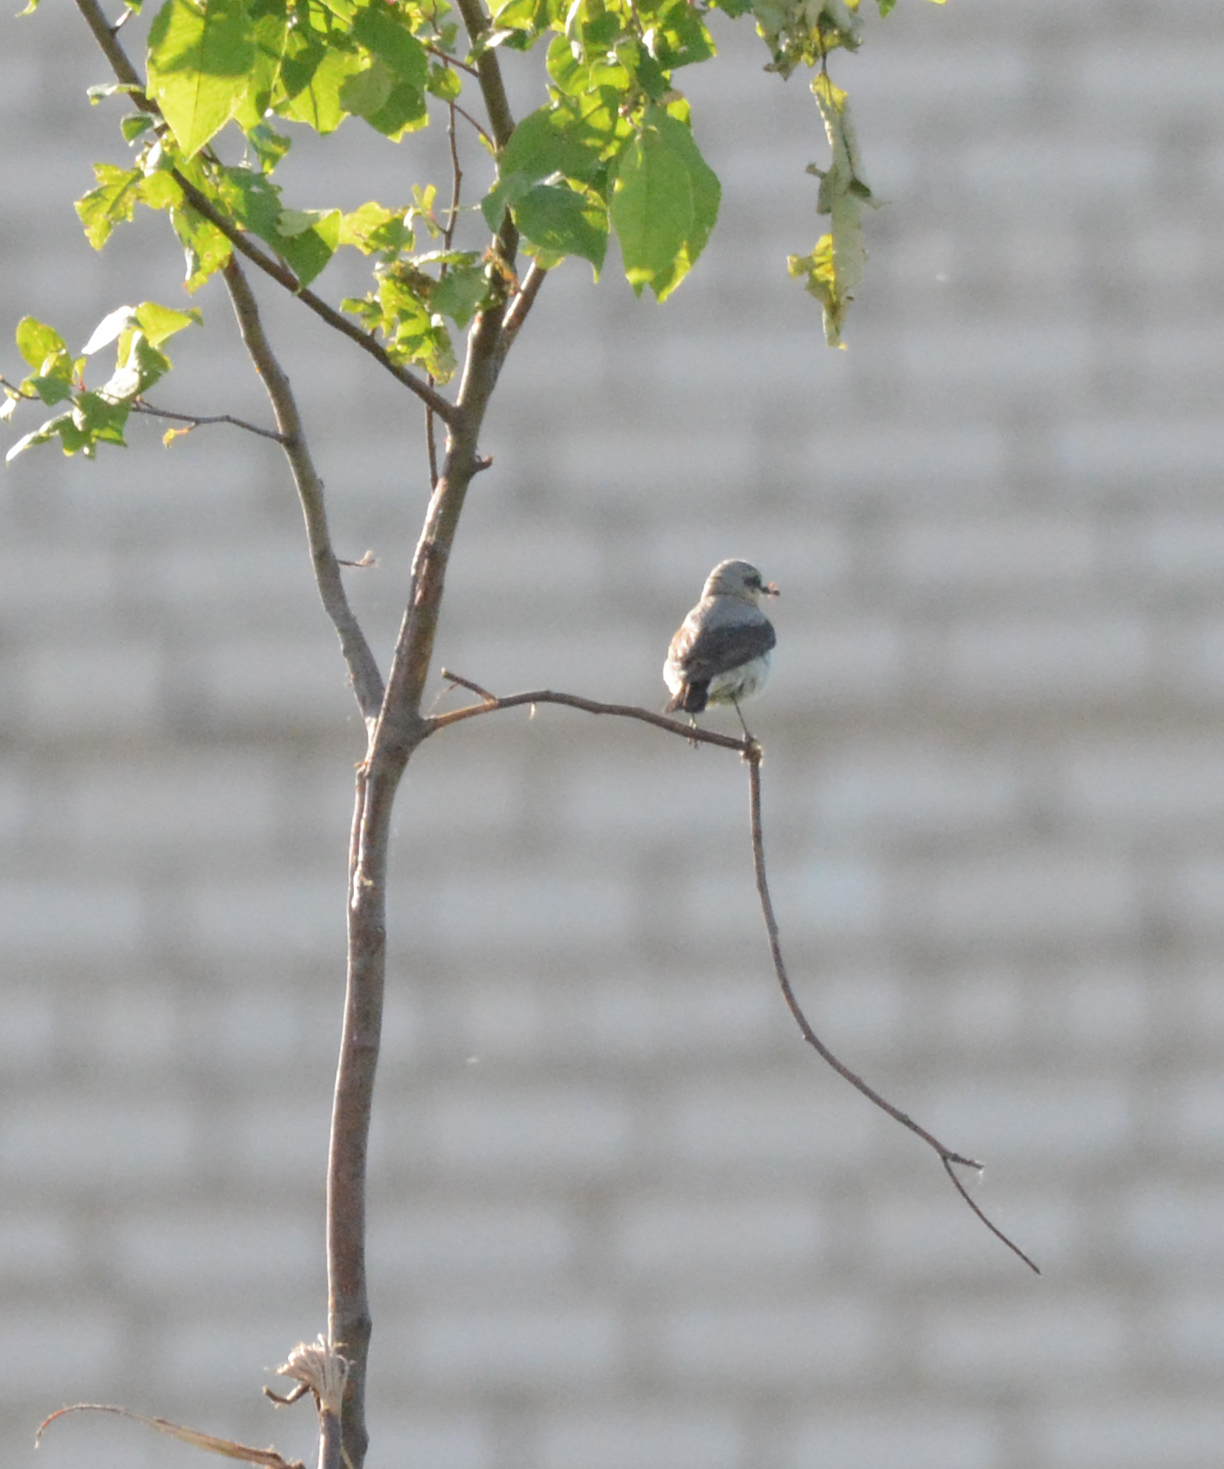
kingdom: Animalia
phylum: Chordata
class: Aves
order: Passeriformes
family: Muscicapidae
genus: Oenanthe
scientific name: Oenanthe oenanthe
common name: Northern wheatear
